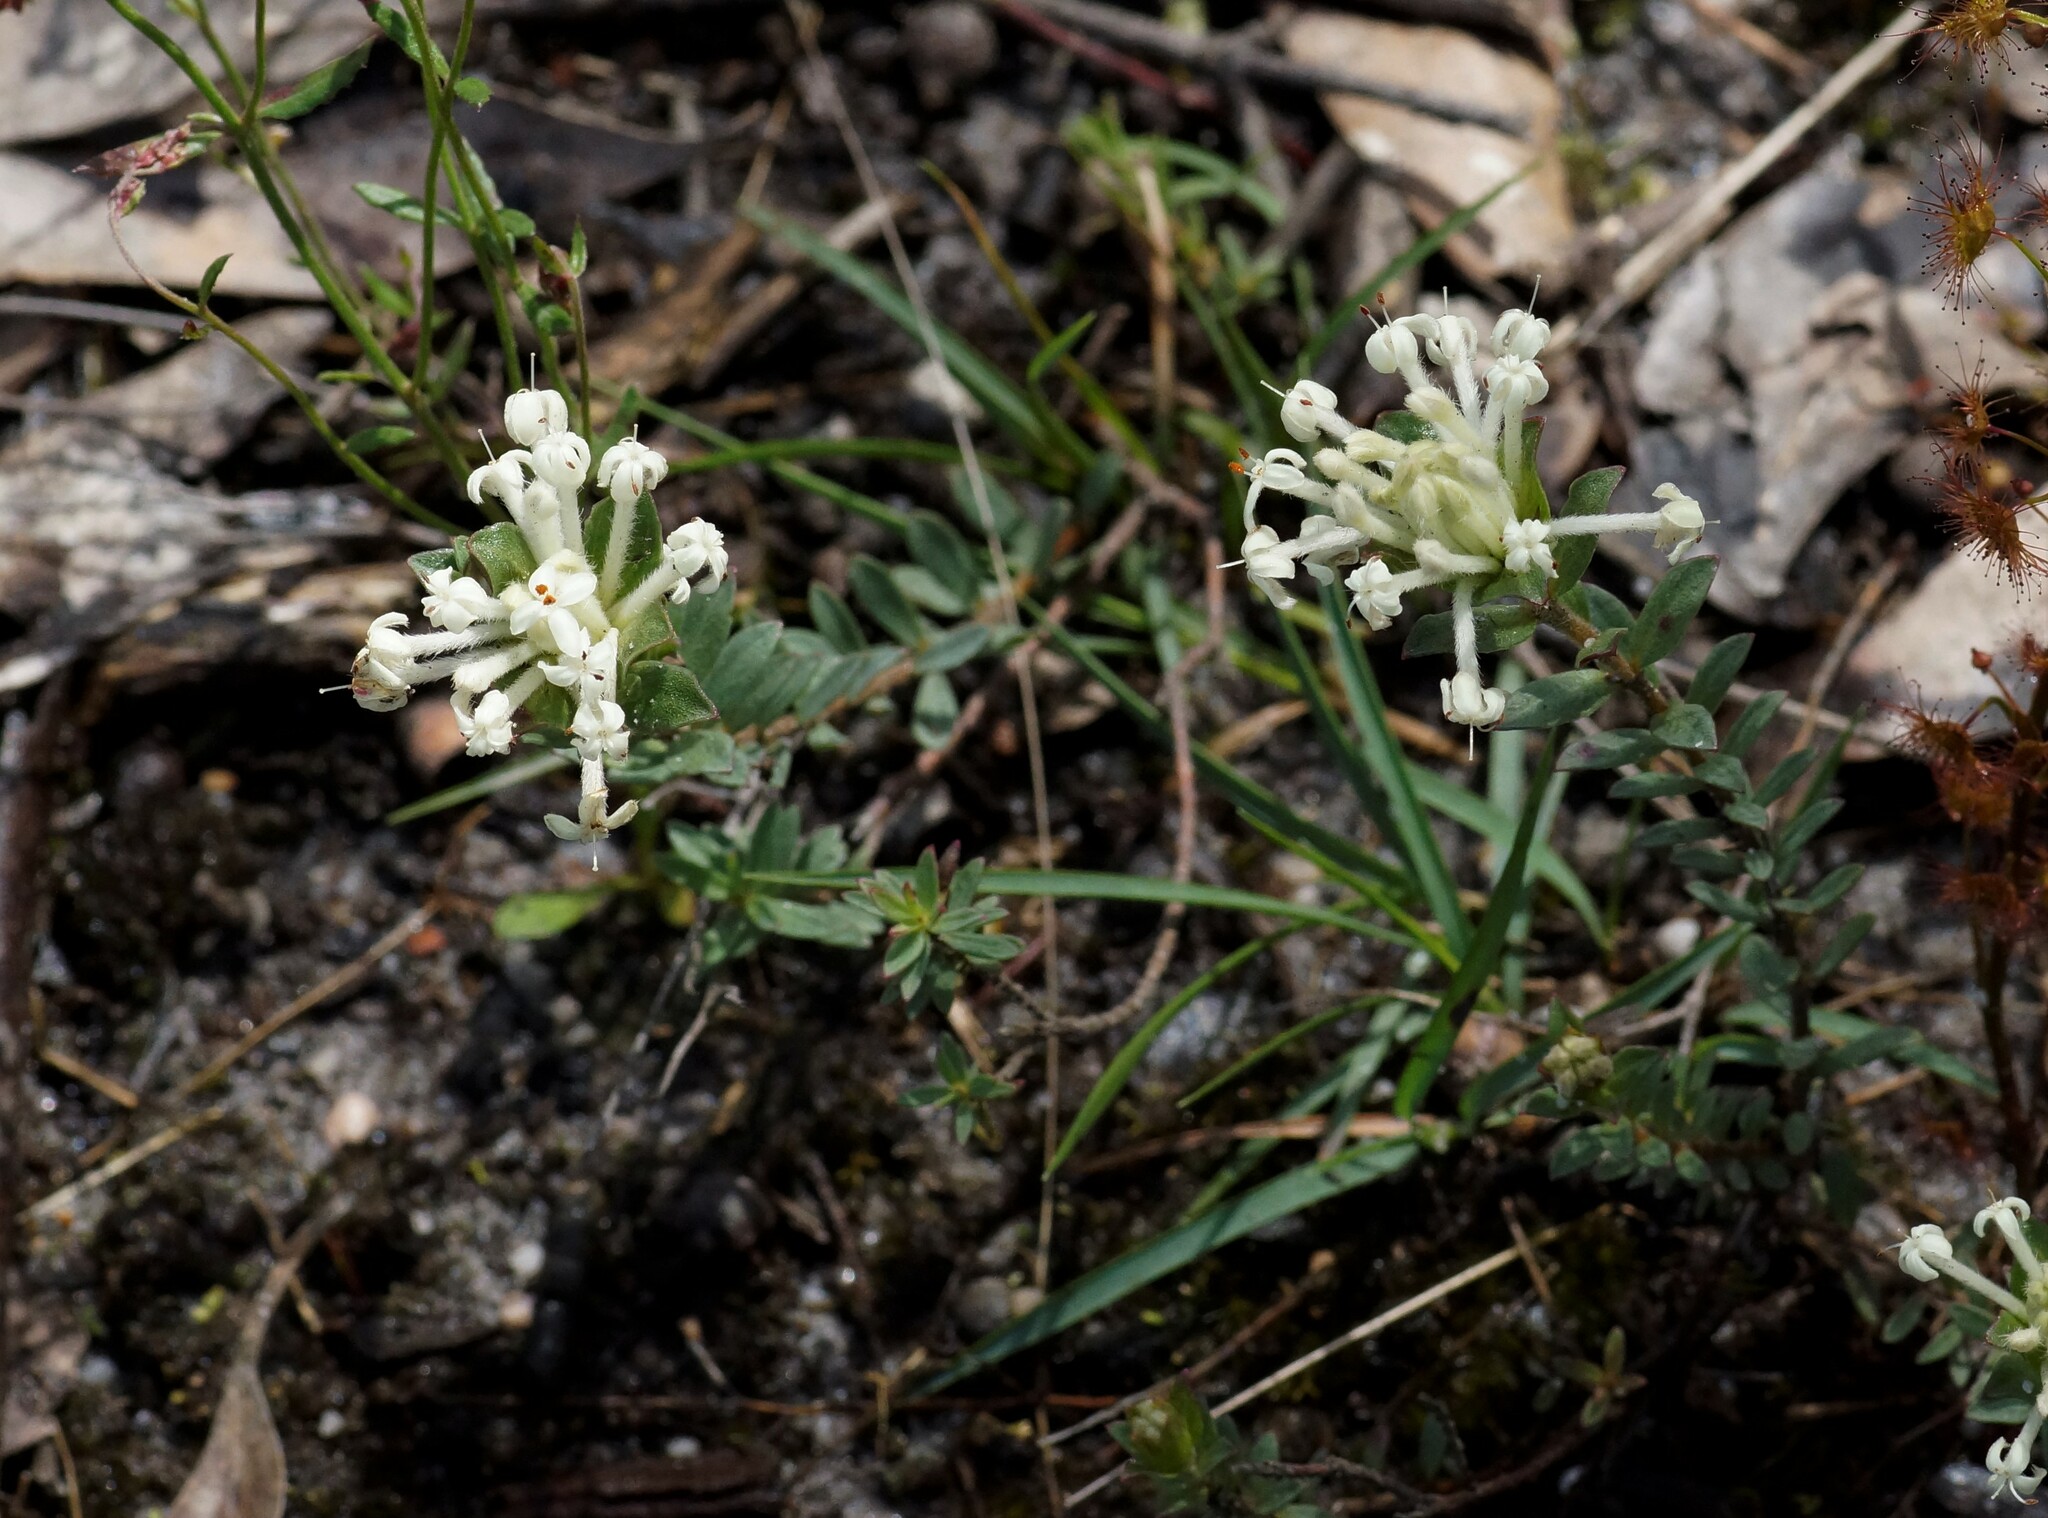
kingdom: Plantae
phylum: Tracheophyta
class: Magnoliopsida
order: Malvales
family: Thymelaeaceae
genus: Pimelea
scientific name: Pimelea humilis
